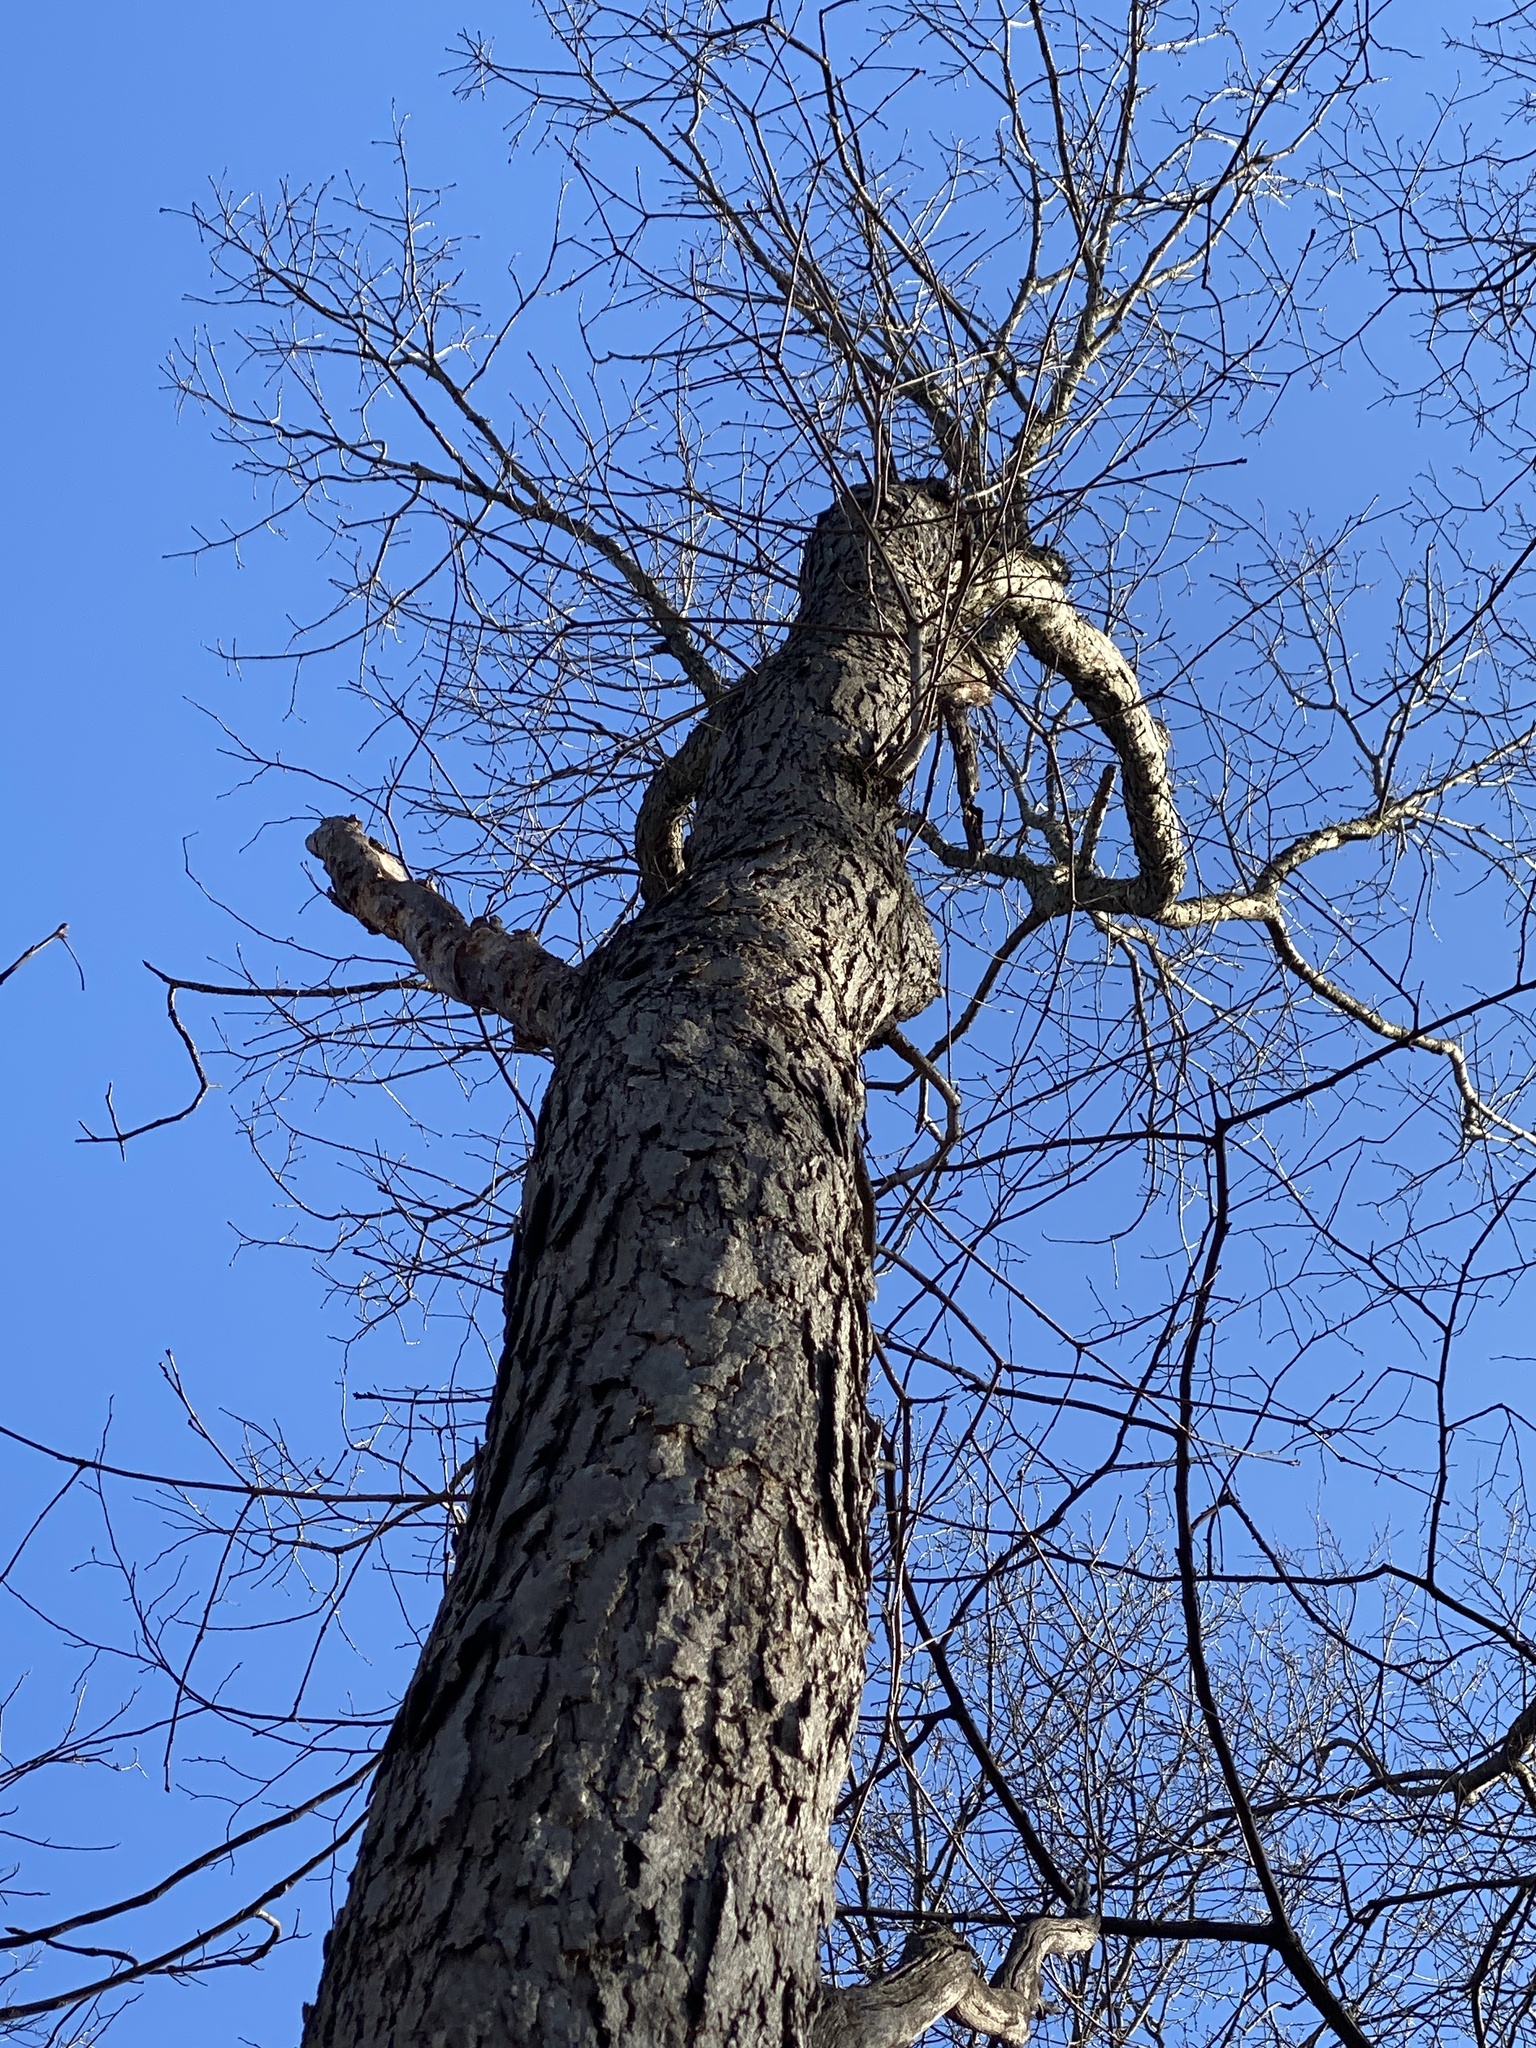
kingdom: Plantae
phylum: Tracheophyta
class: Magnoliopsida
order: Fagales
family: Fagaceae
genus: Quercus
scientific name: Quercus alba
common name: White oak
